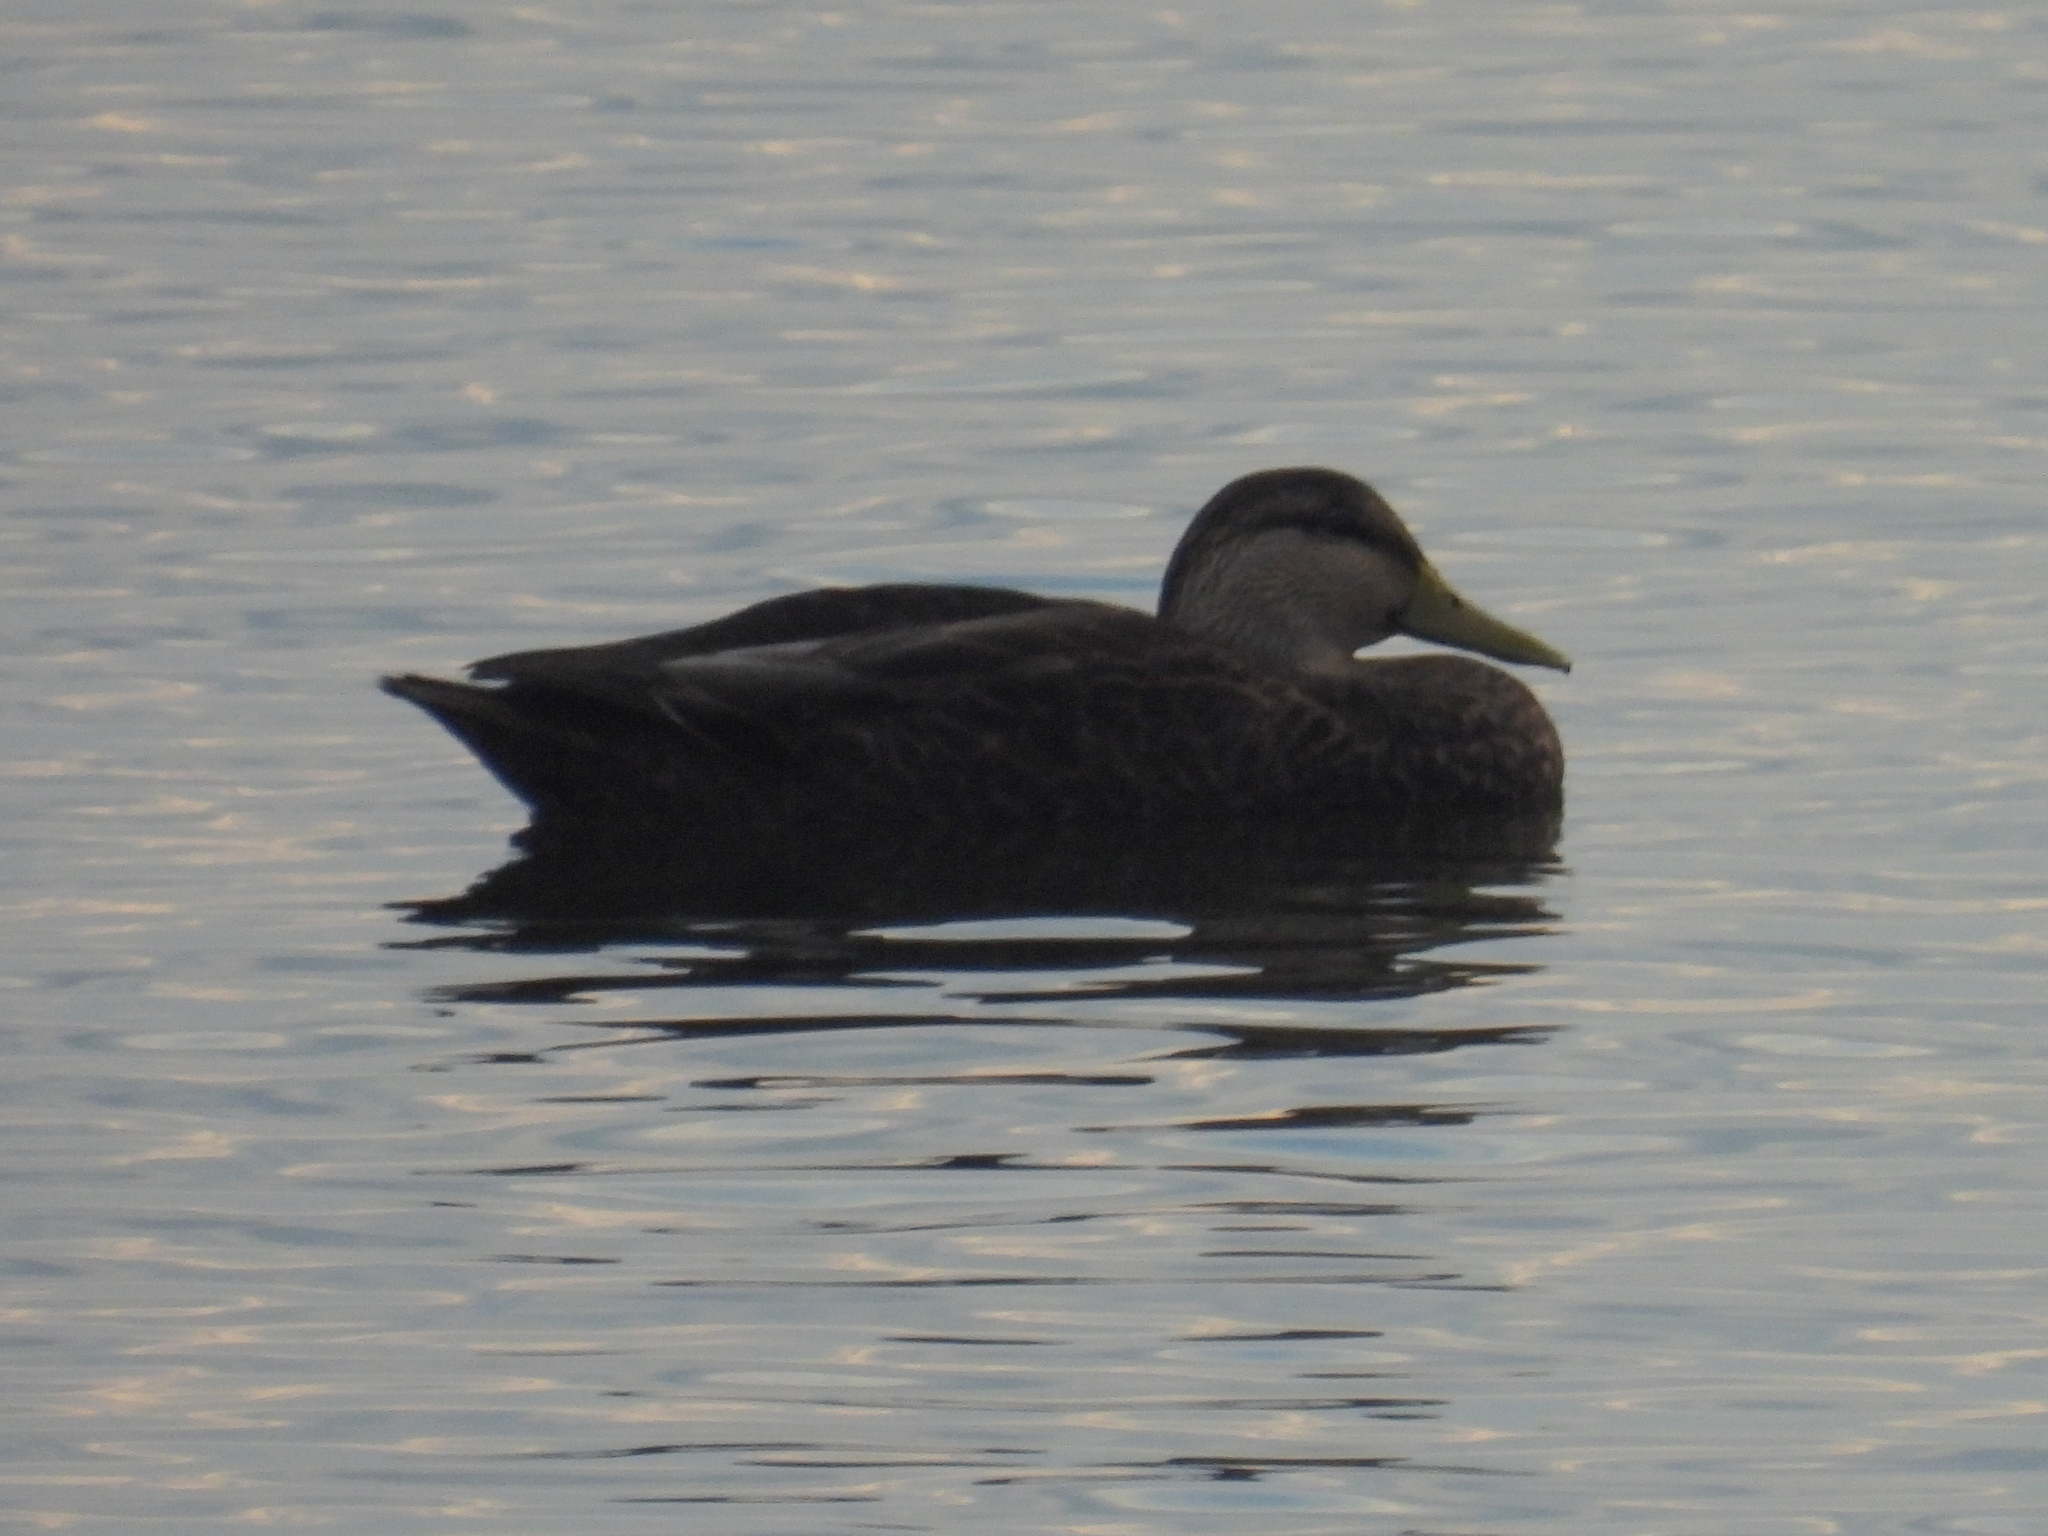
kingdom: Animalia
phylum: Chordata
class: Aves
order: Anseriformes
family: Anatidae
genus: Anas
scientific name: Anas rubripes
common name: American black duck
